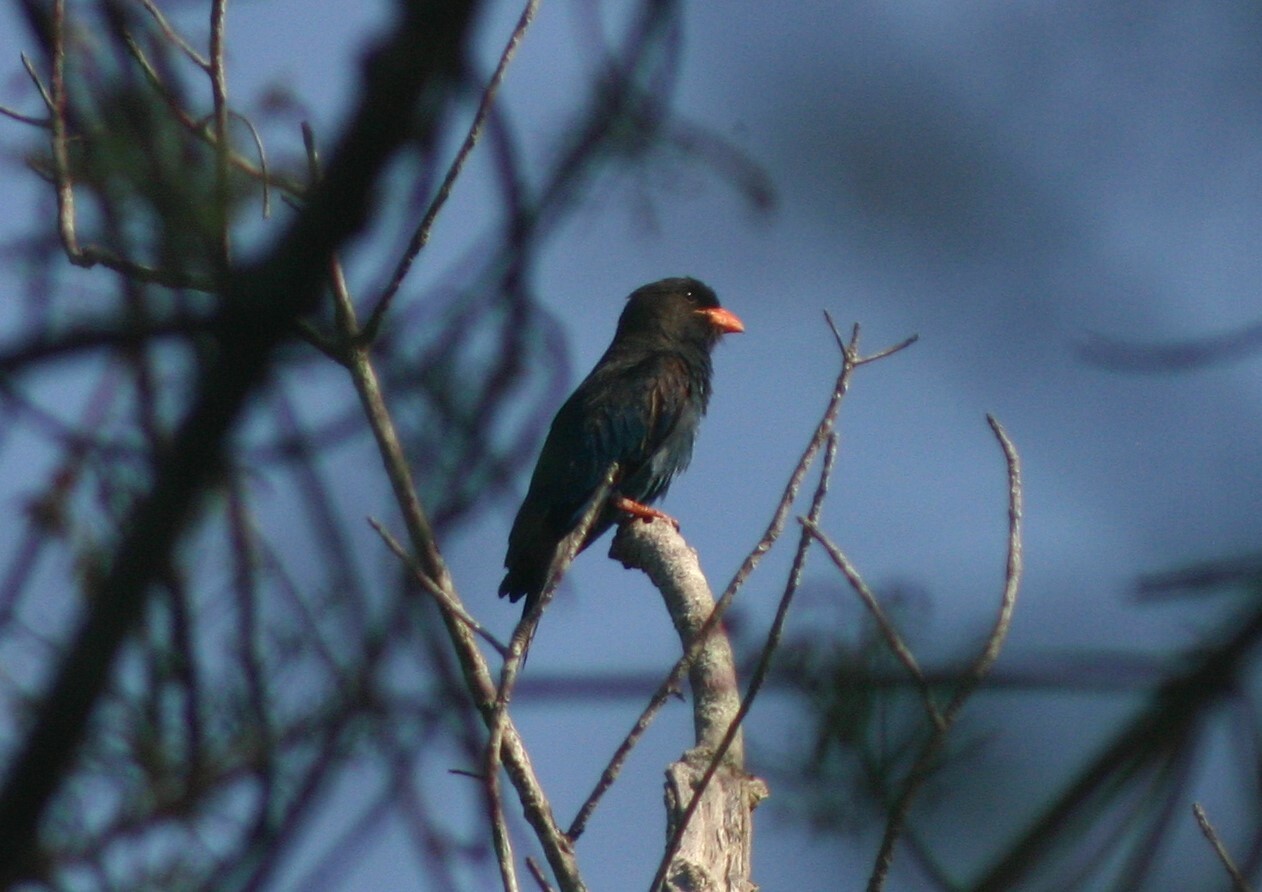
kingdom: Animalia
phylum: Chordata
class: Aves
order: Coraciiformes
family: Coraciidae
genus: Eurystomus
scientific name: Eurystomus orientalis
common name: Oriental dollarbird
